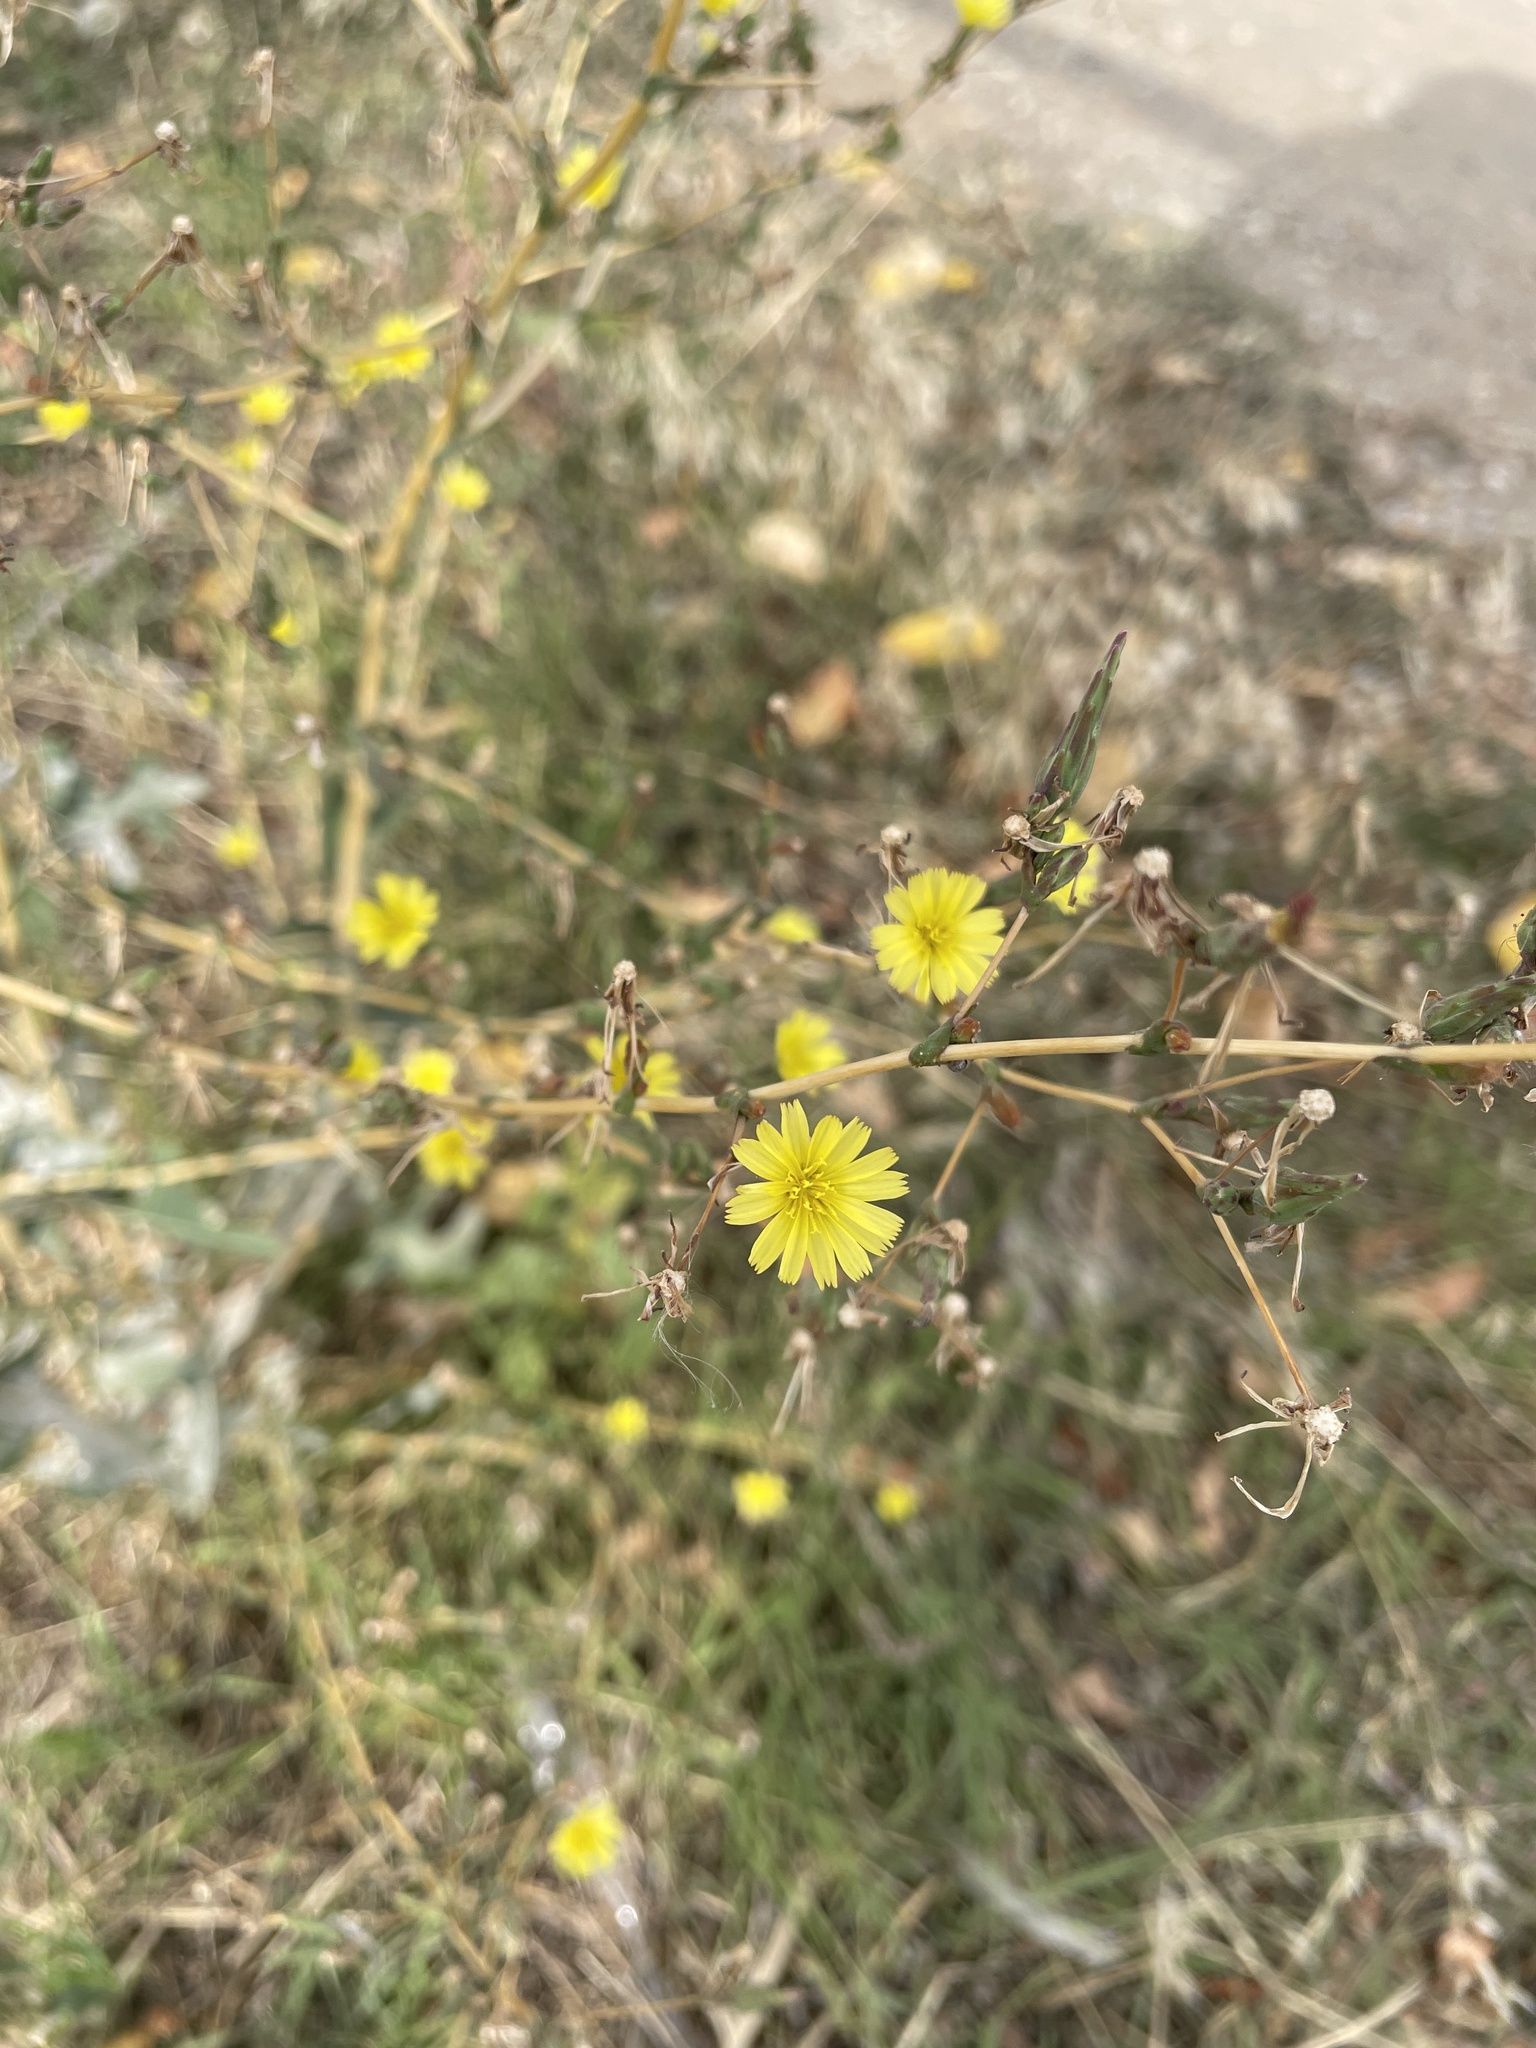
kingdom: Plantae
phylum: Tracheophyta
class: Magnoliopsida
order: Asterales
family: Asteraceae
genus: Lactuca
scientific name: Lactuca serriola
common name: Prickly lettuce
